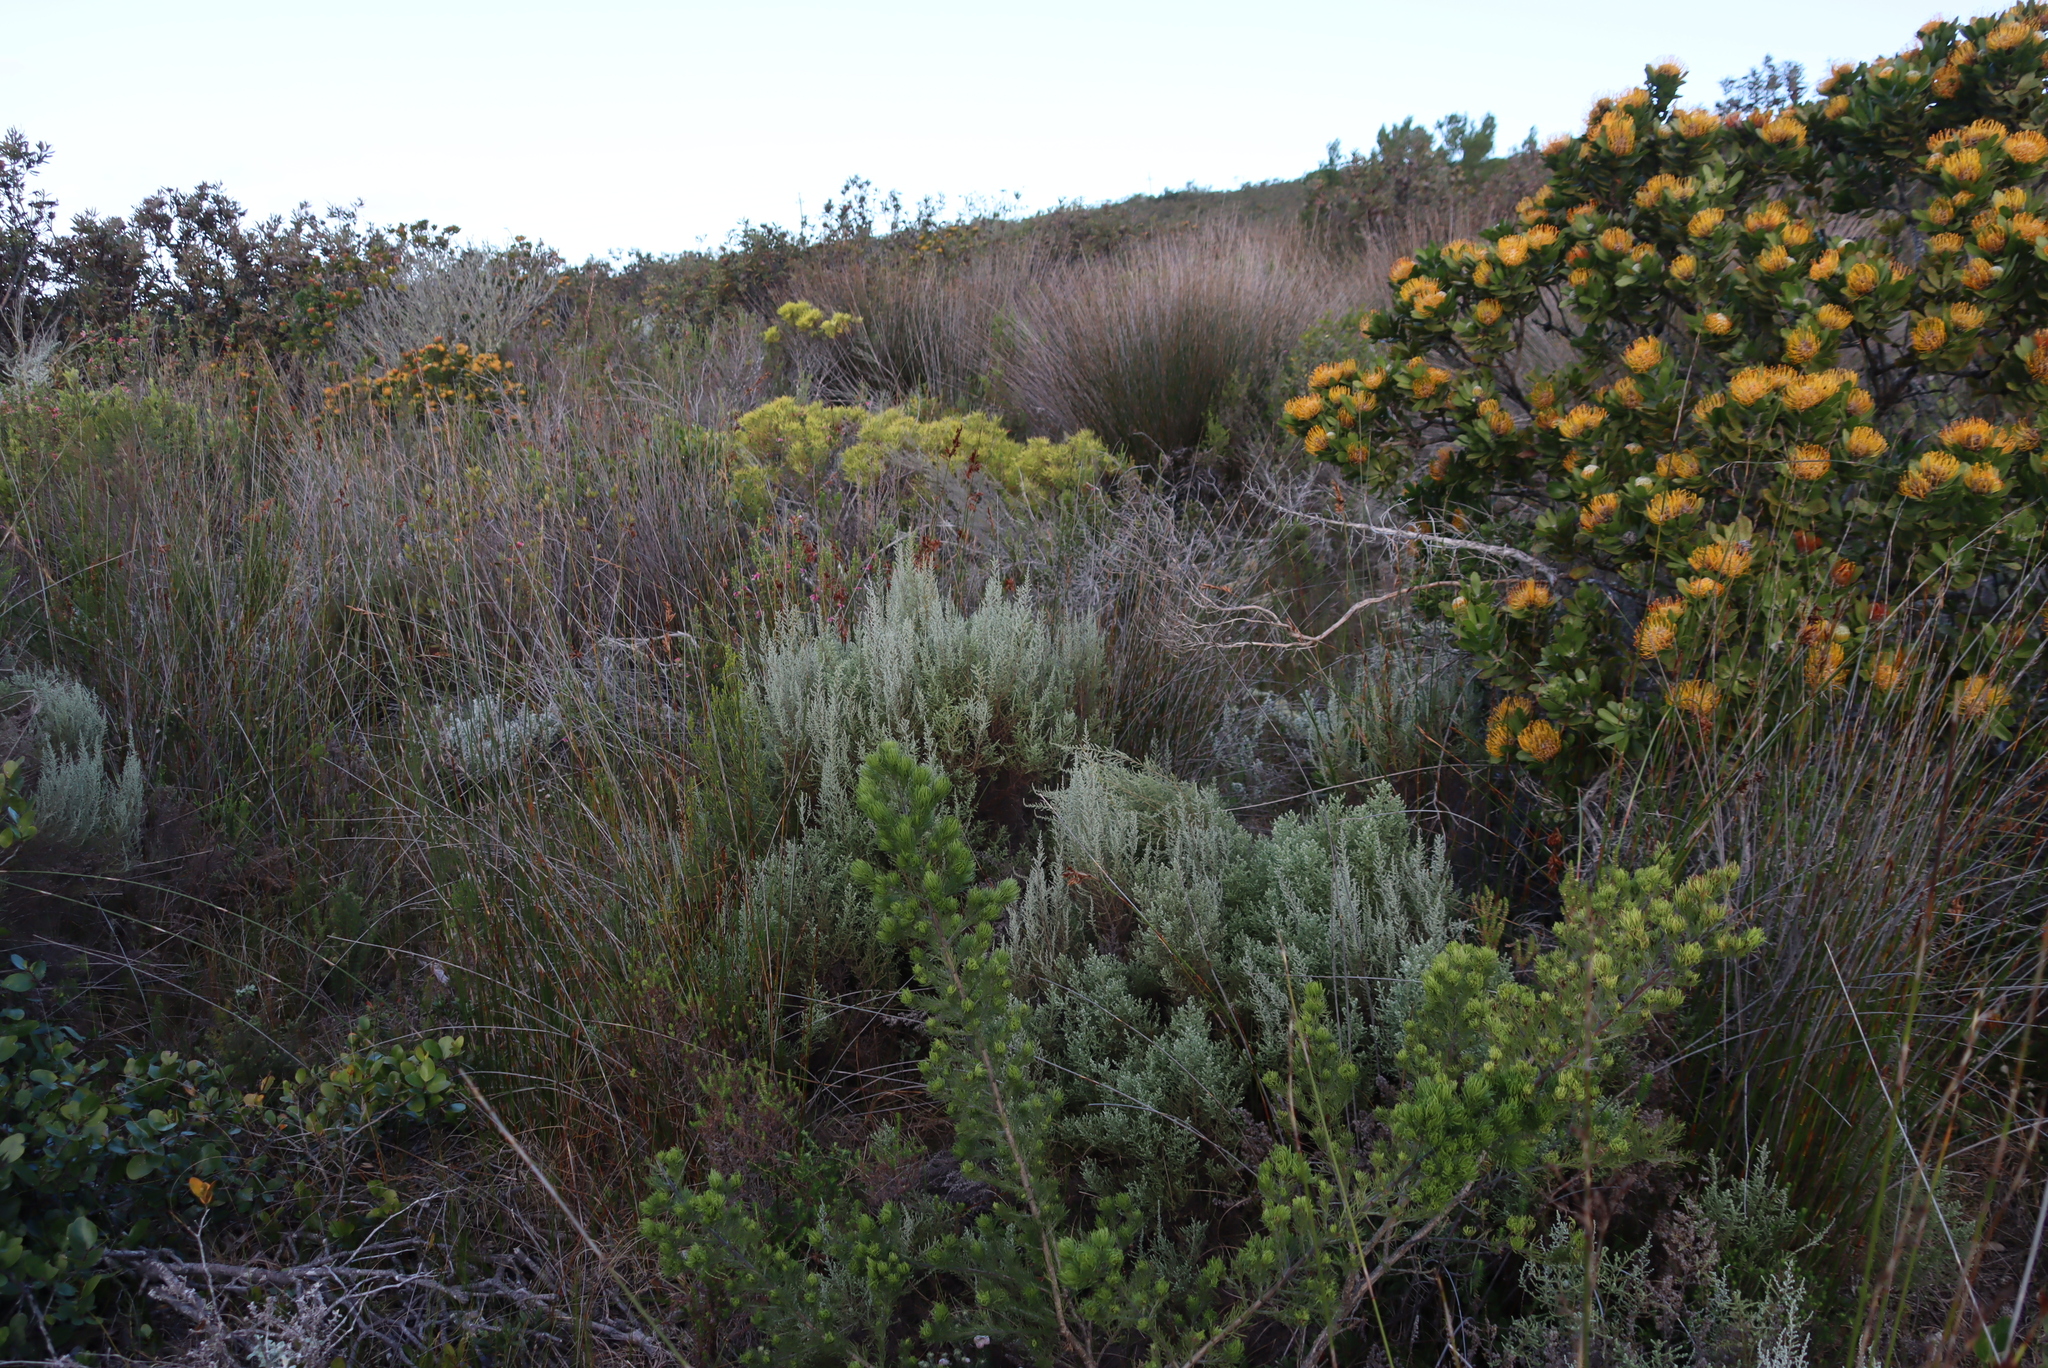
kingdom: Plantae
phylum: Tracheophyta
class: Magnoliopsida
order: Proteales
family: Proteaceae
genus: Leucospermum
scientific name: Leucospermum praecox
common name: Mossel bay pincushion
